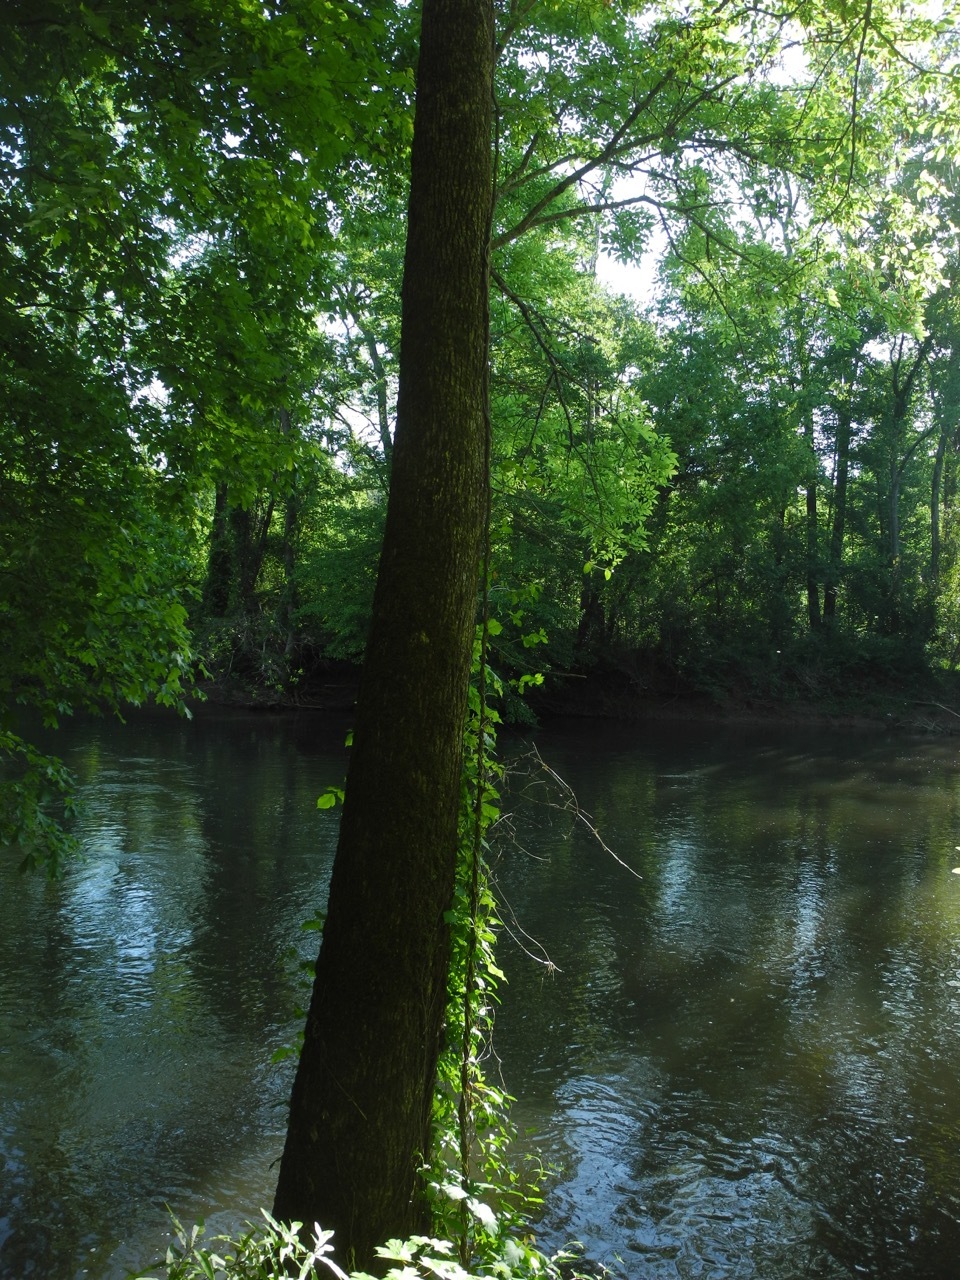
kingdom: Plantae
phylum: Tracheophyta
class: Magnoliopsida
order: Lamiales
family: Oleaceae
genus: Fraxinus
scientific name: Fraxinus pennsylvanica
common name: Green ash
